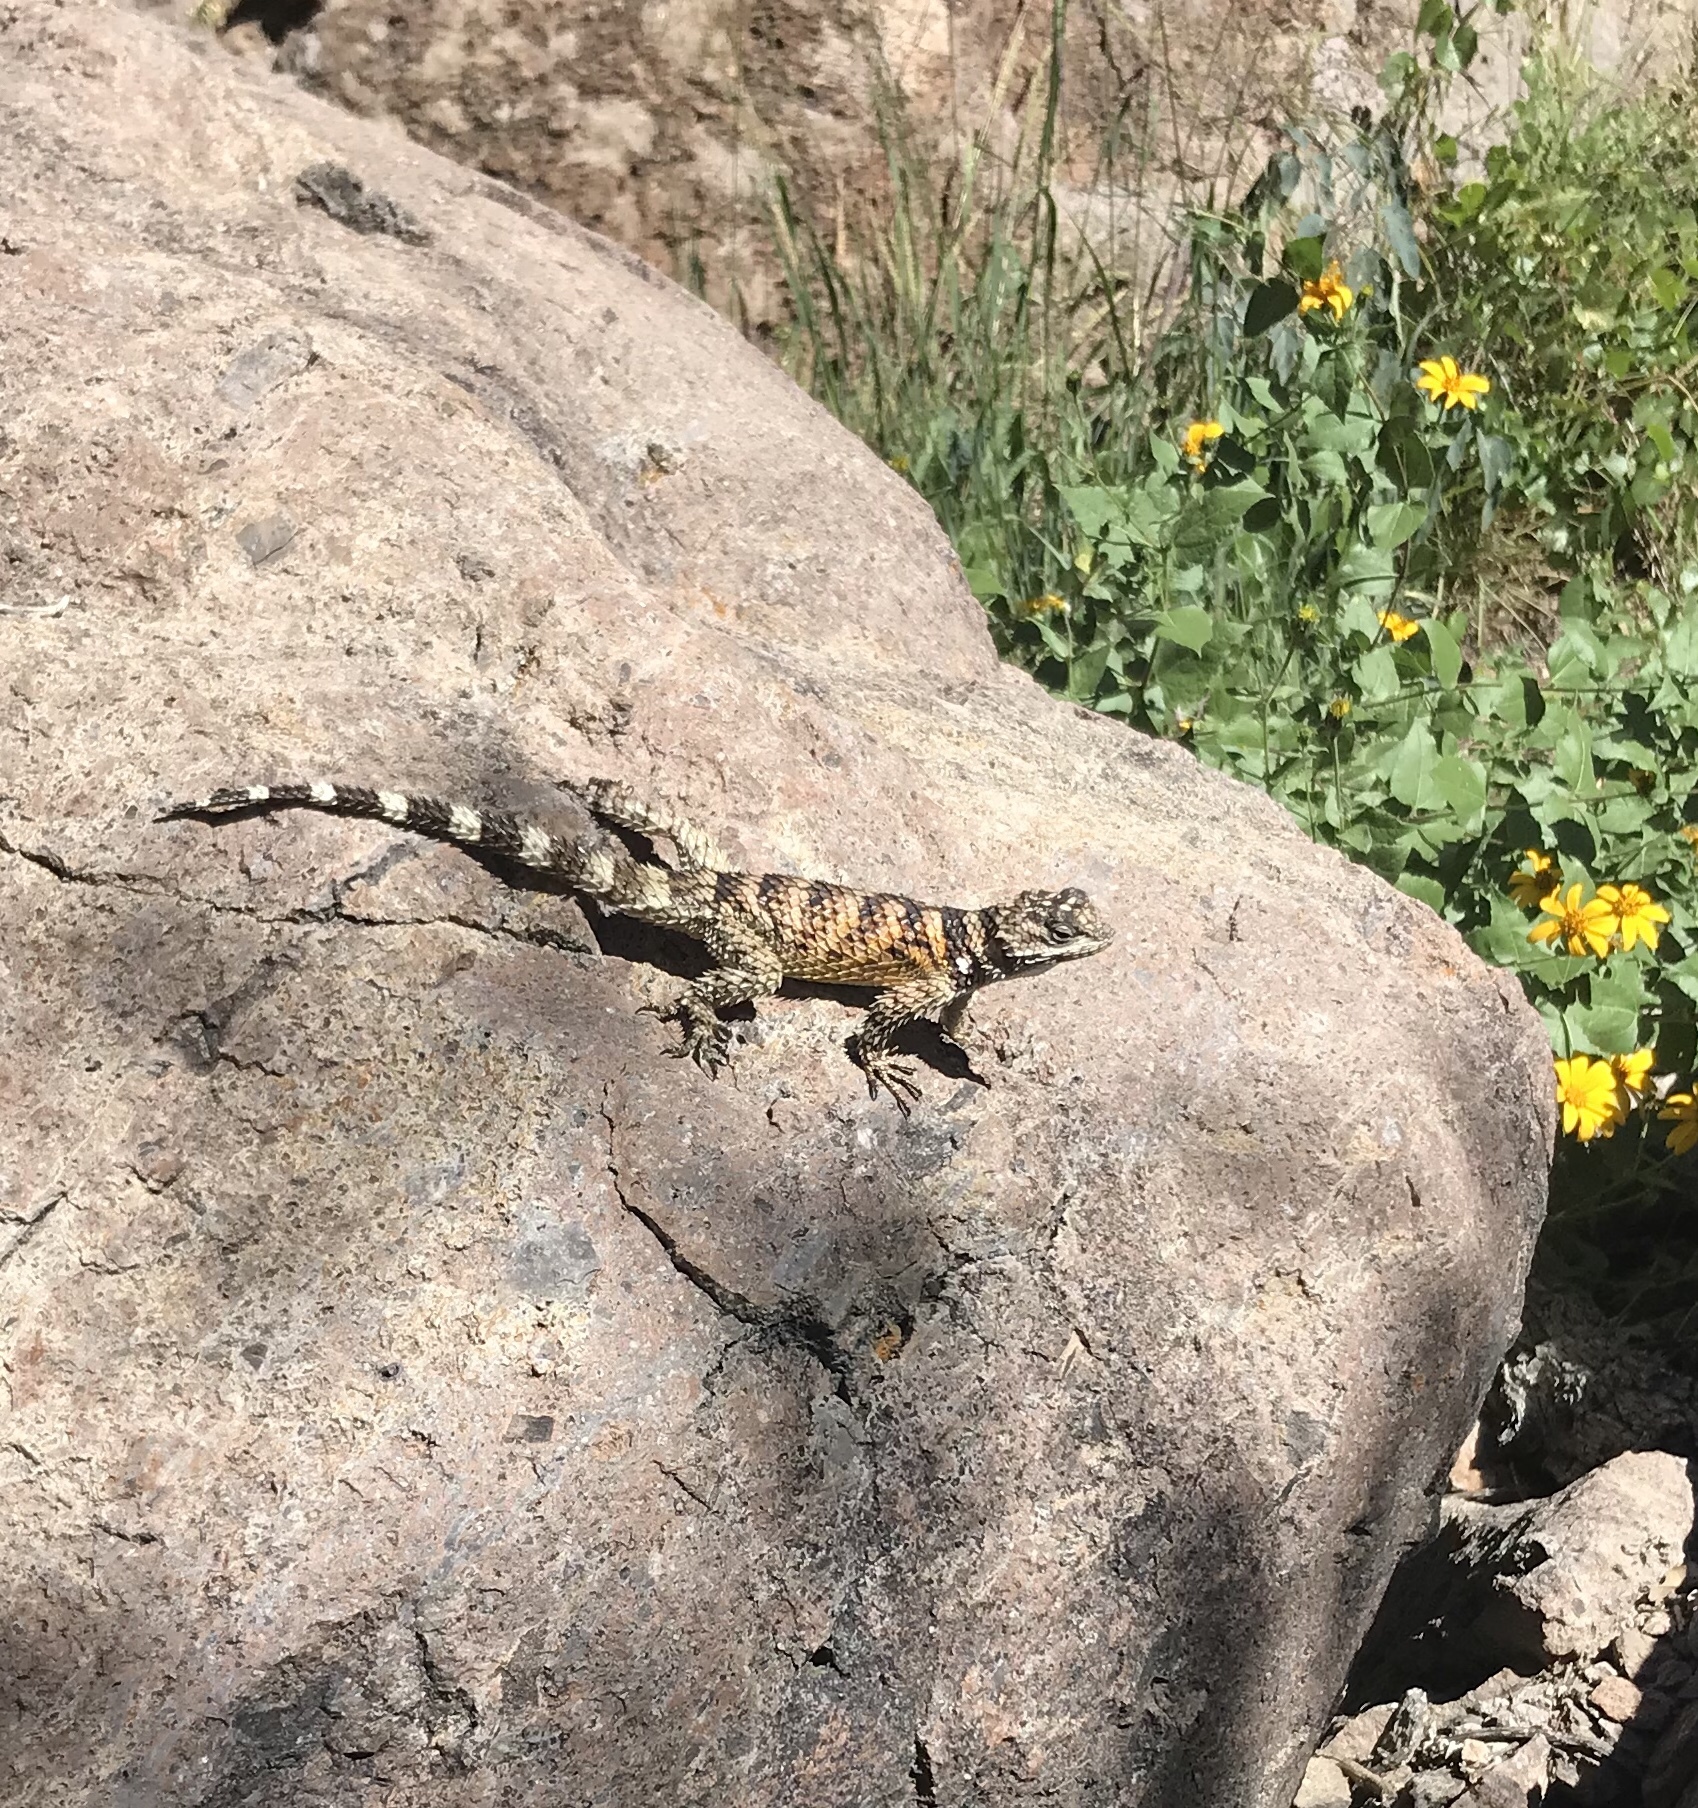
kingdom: Animalia
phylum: Chordata
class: Squamata
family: Phrynosomatidae
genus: Sceloporus
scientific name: Sceloporus poinsettii
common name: Crevice spiny lizard
